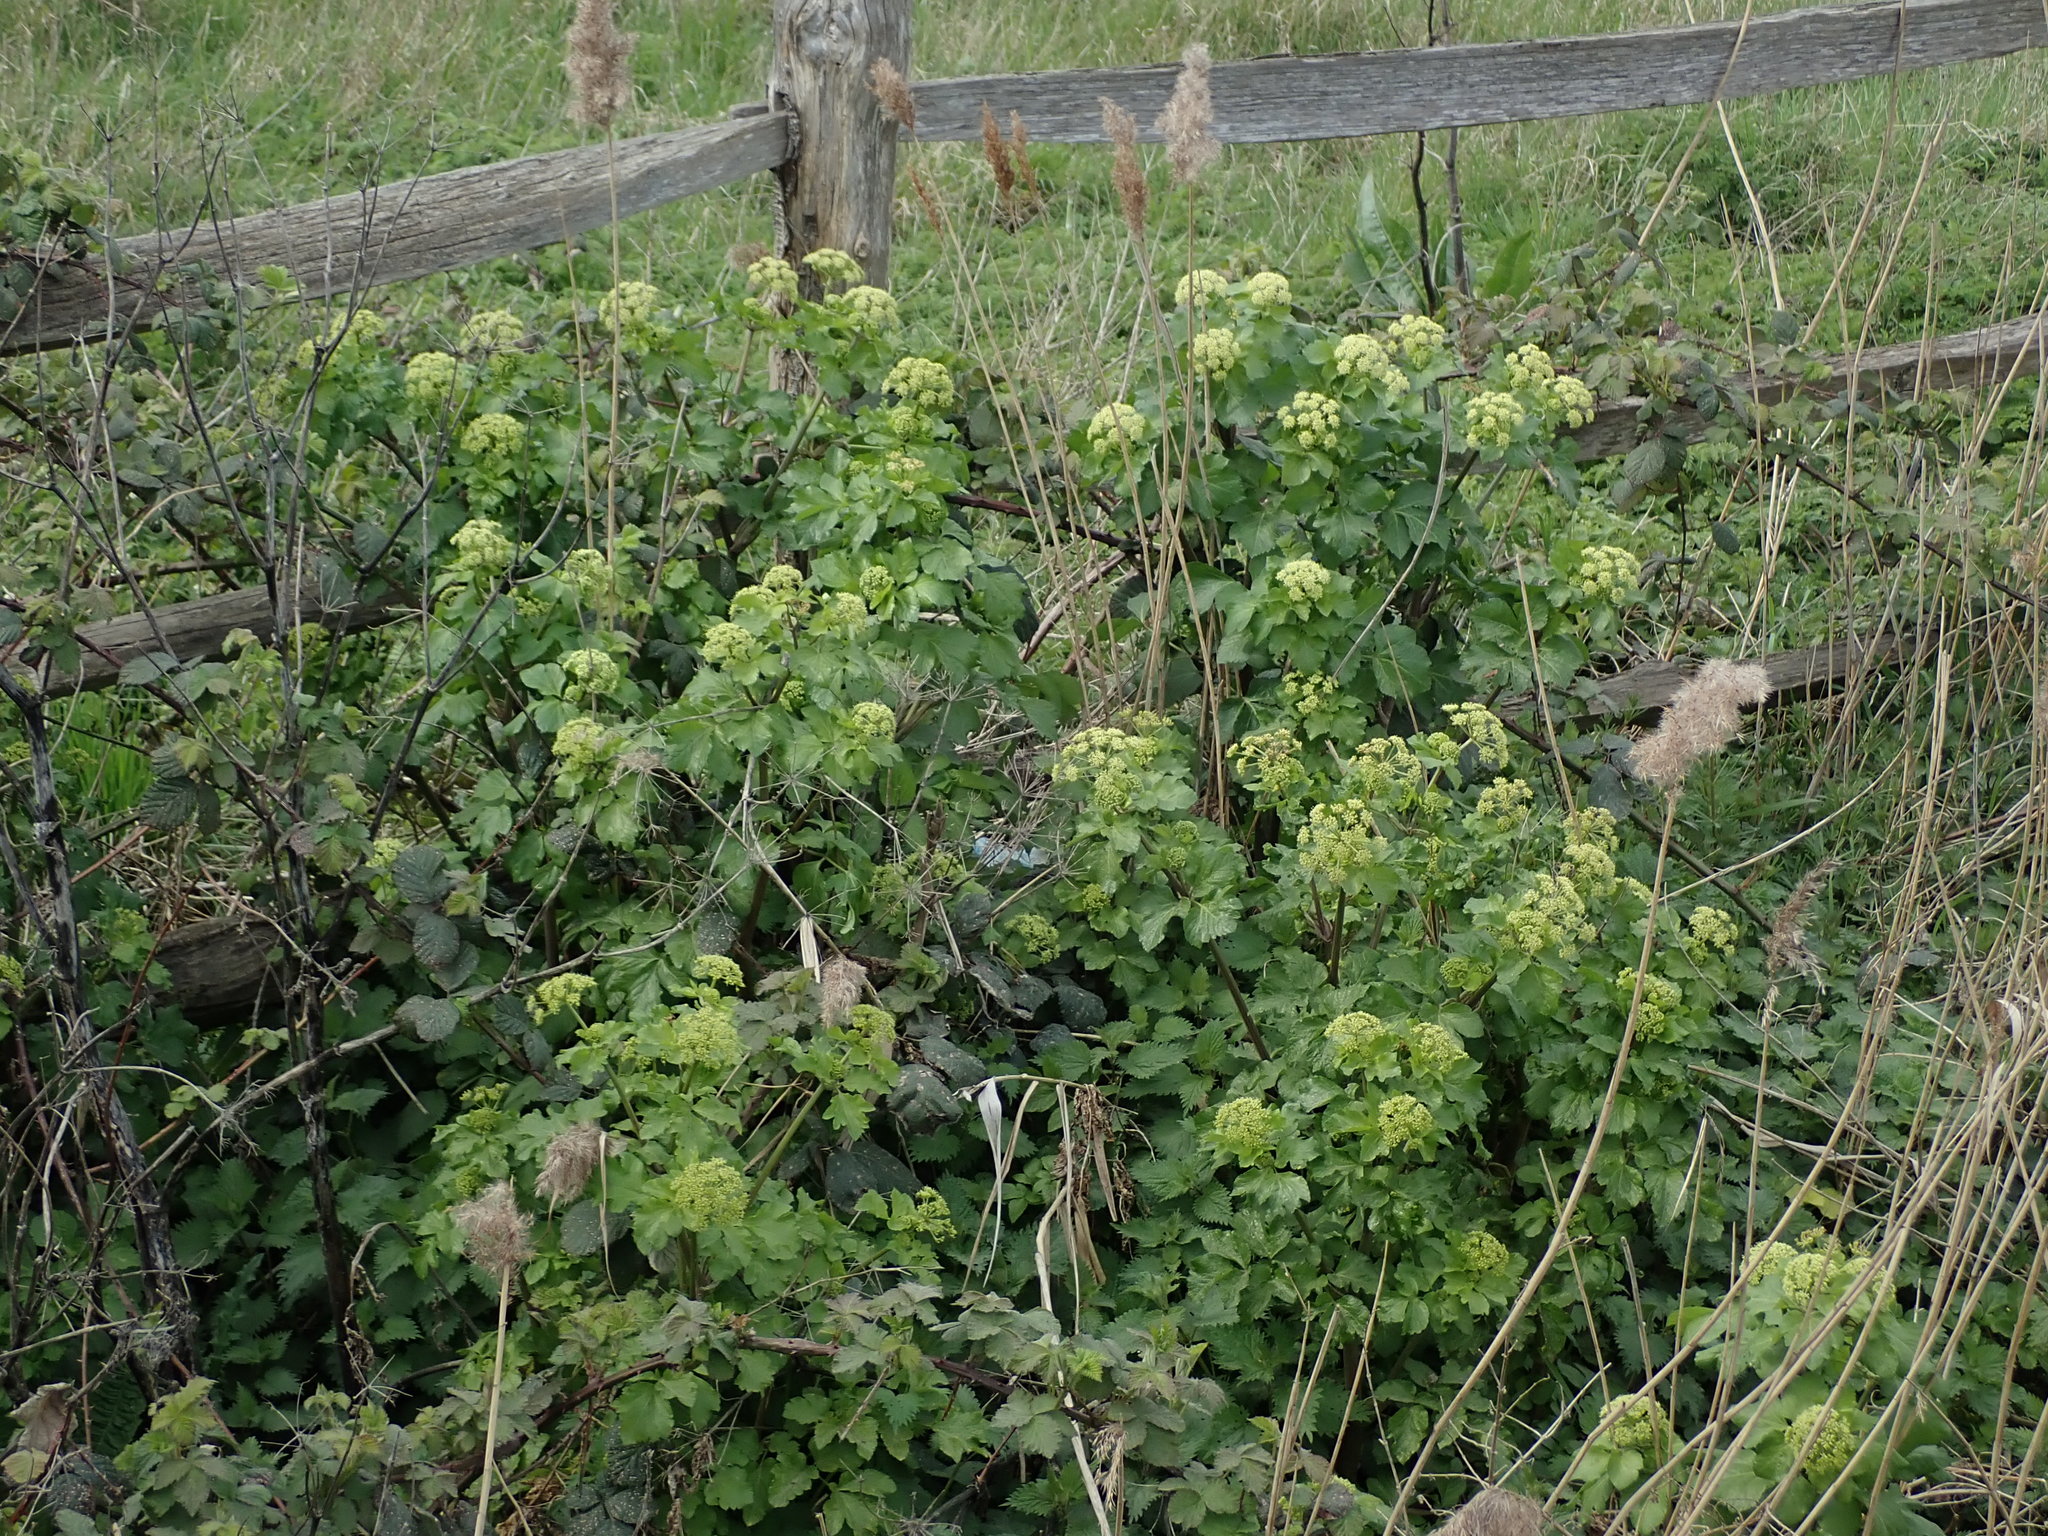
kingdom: Plantae
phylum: Tracheophyta
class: Magnoliopsida
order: Apiales
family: Apiaceae
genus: Smyrnium
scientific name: Smyrnium olusatrum
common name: Alexanders
